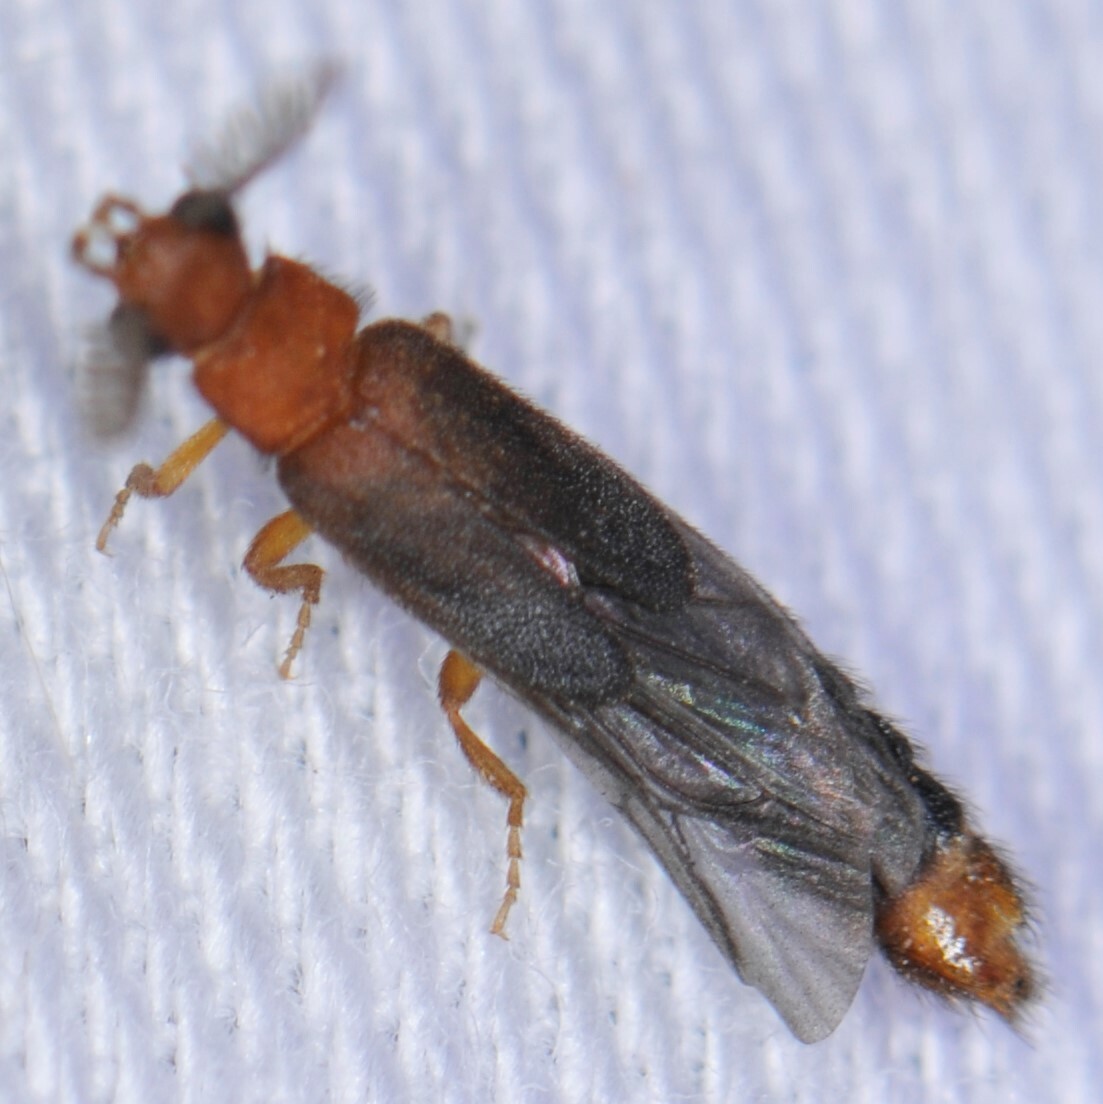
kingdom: Animalia
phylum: Arthropoda
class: Insecta
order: Coleoptera
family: Phengodidae
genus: Distremocephalus
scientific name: Distremocephalus opaculus
